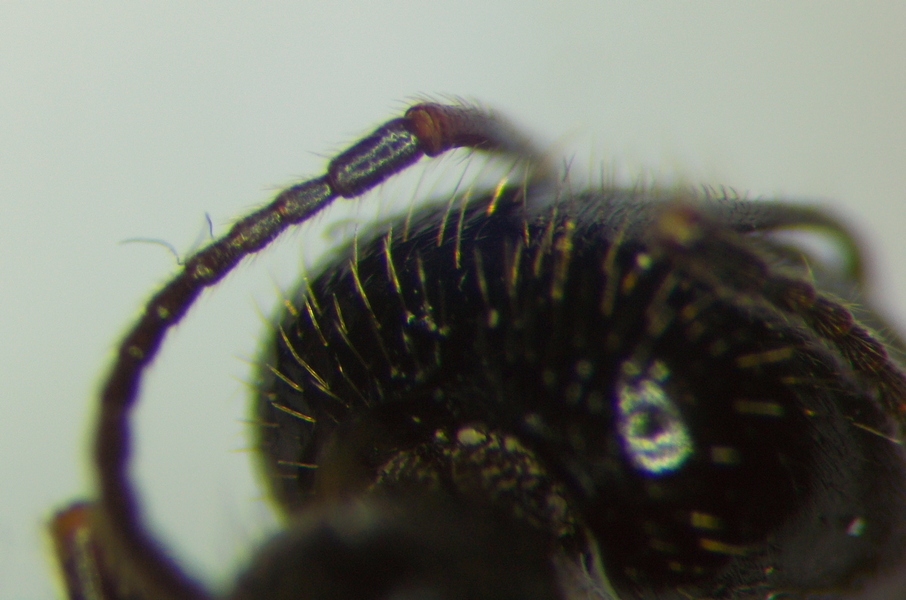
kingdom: Animalia
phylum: Arthropoda
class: Insecta
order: Hymenoptera
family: Formicidae
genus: Messor
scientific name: Messor structor
